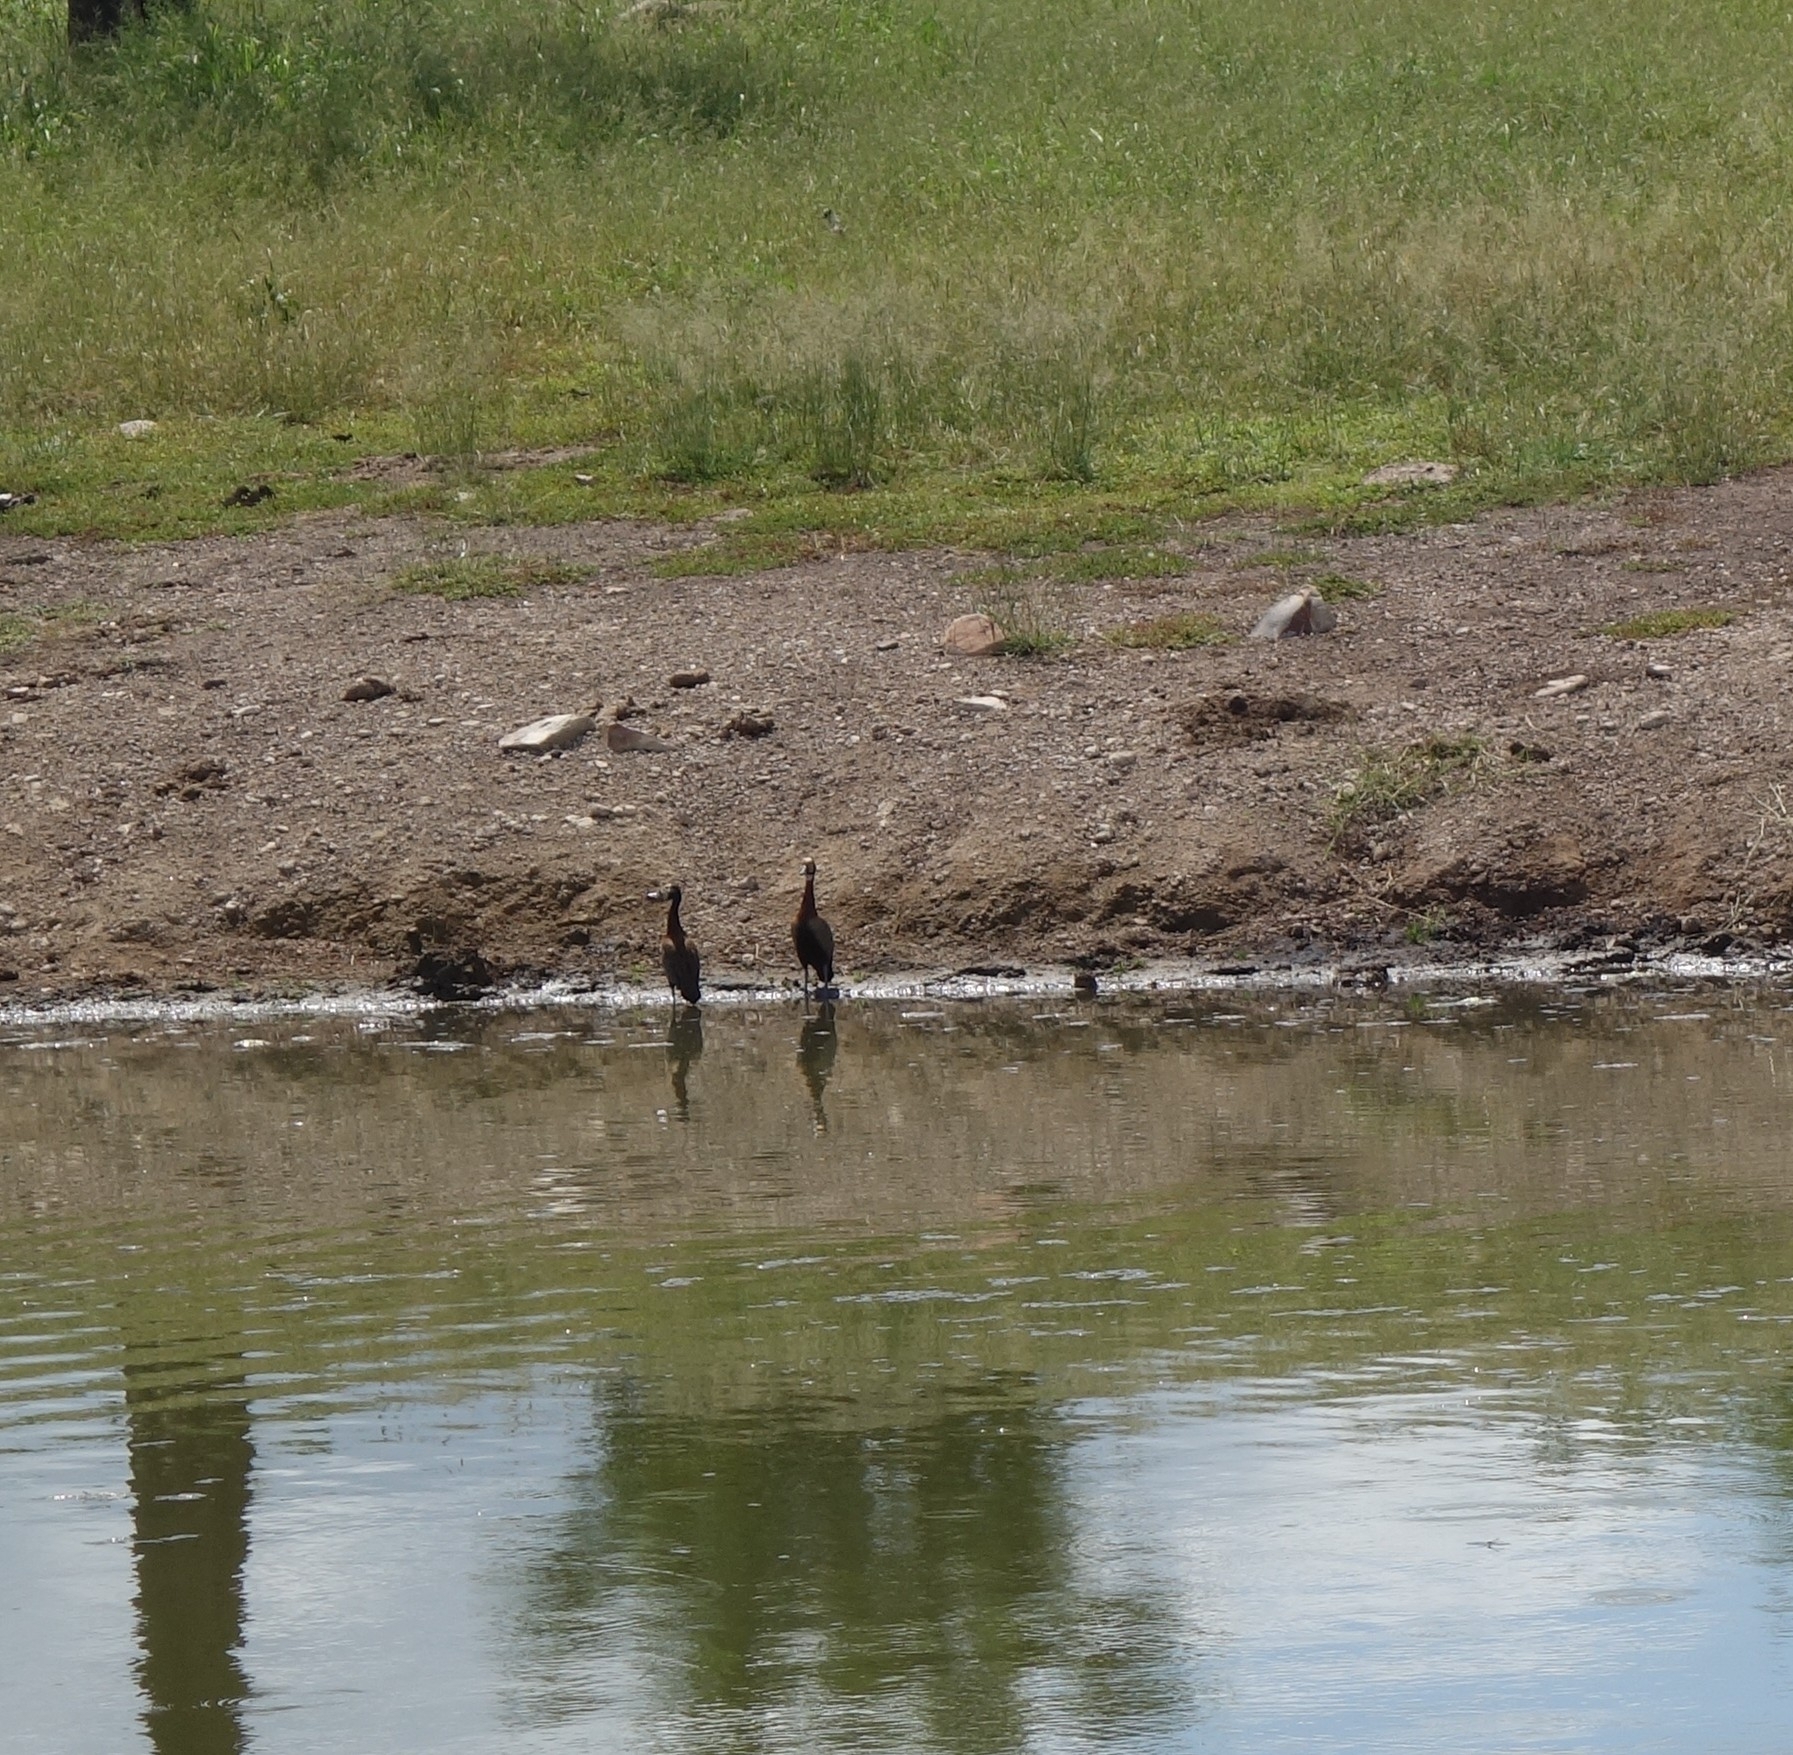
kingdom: Animalia
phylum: Chordata
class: Aves
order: Anseriformes
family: Anatidae
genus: Dendrocygna
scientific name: Dendrocygna viduata
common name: White-faced whistling duck
